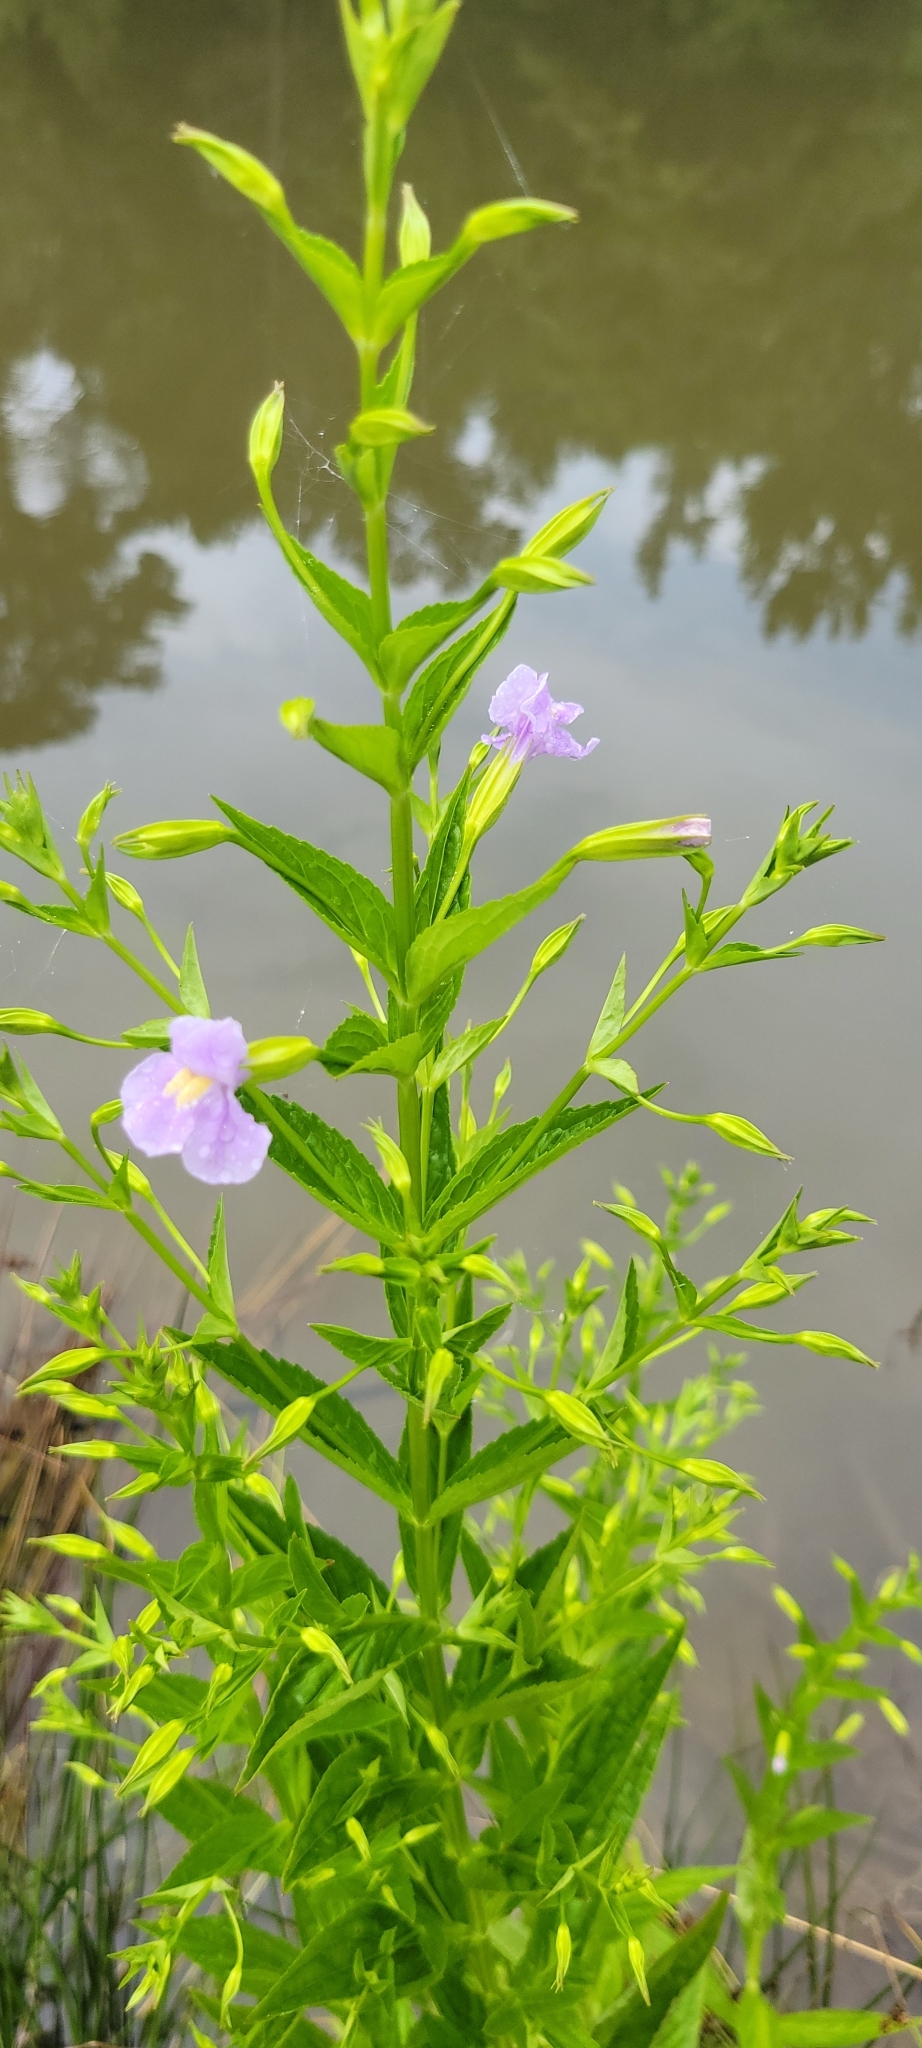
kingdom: Plantae
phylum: Tracheophyta
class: Magnoliopsida
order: Lamiales
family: Phrymaceae
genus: Mimulus
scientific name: Mimulus ringens
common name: Allegheny monkeyflower
